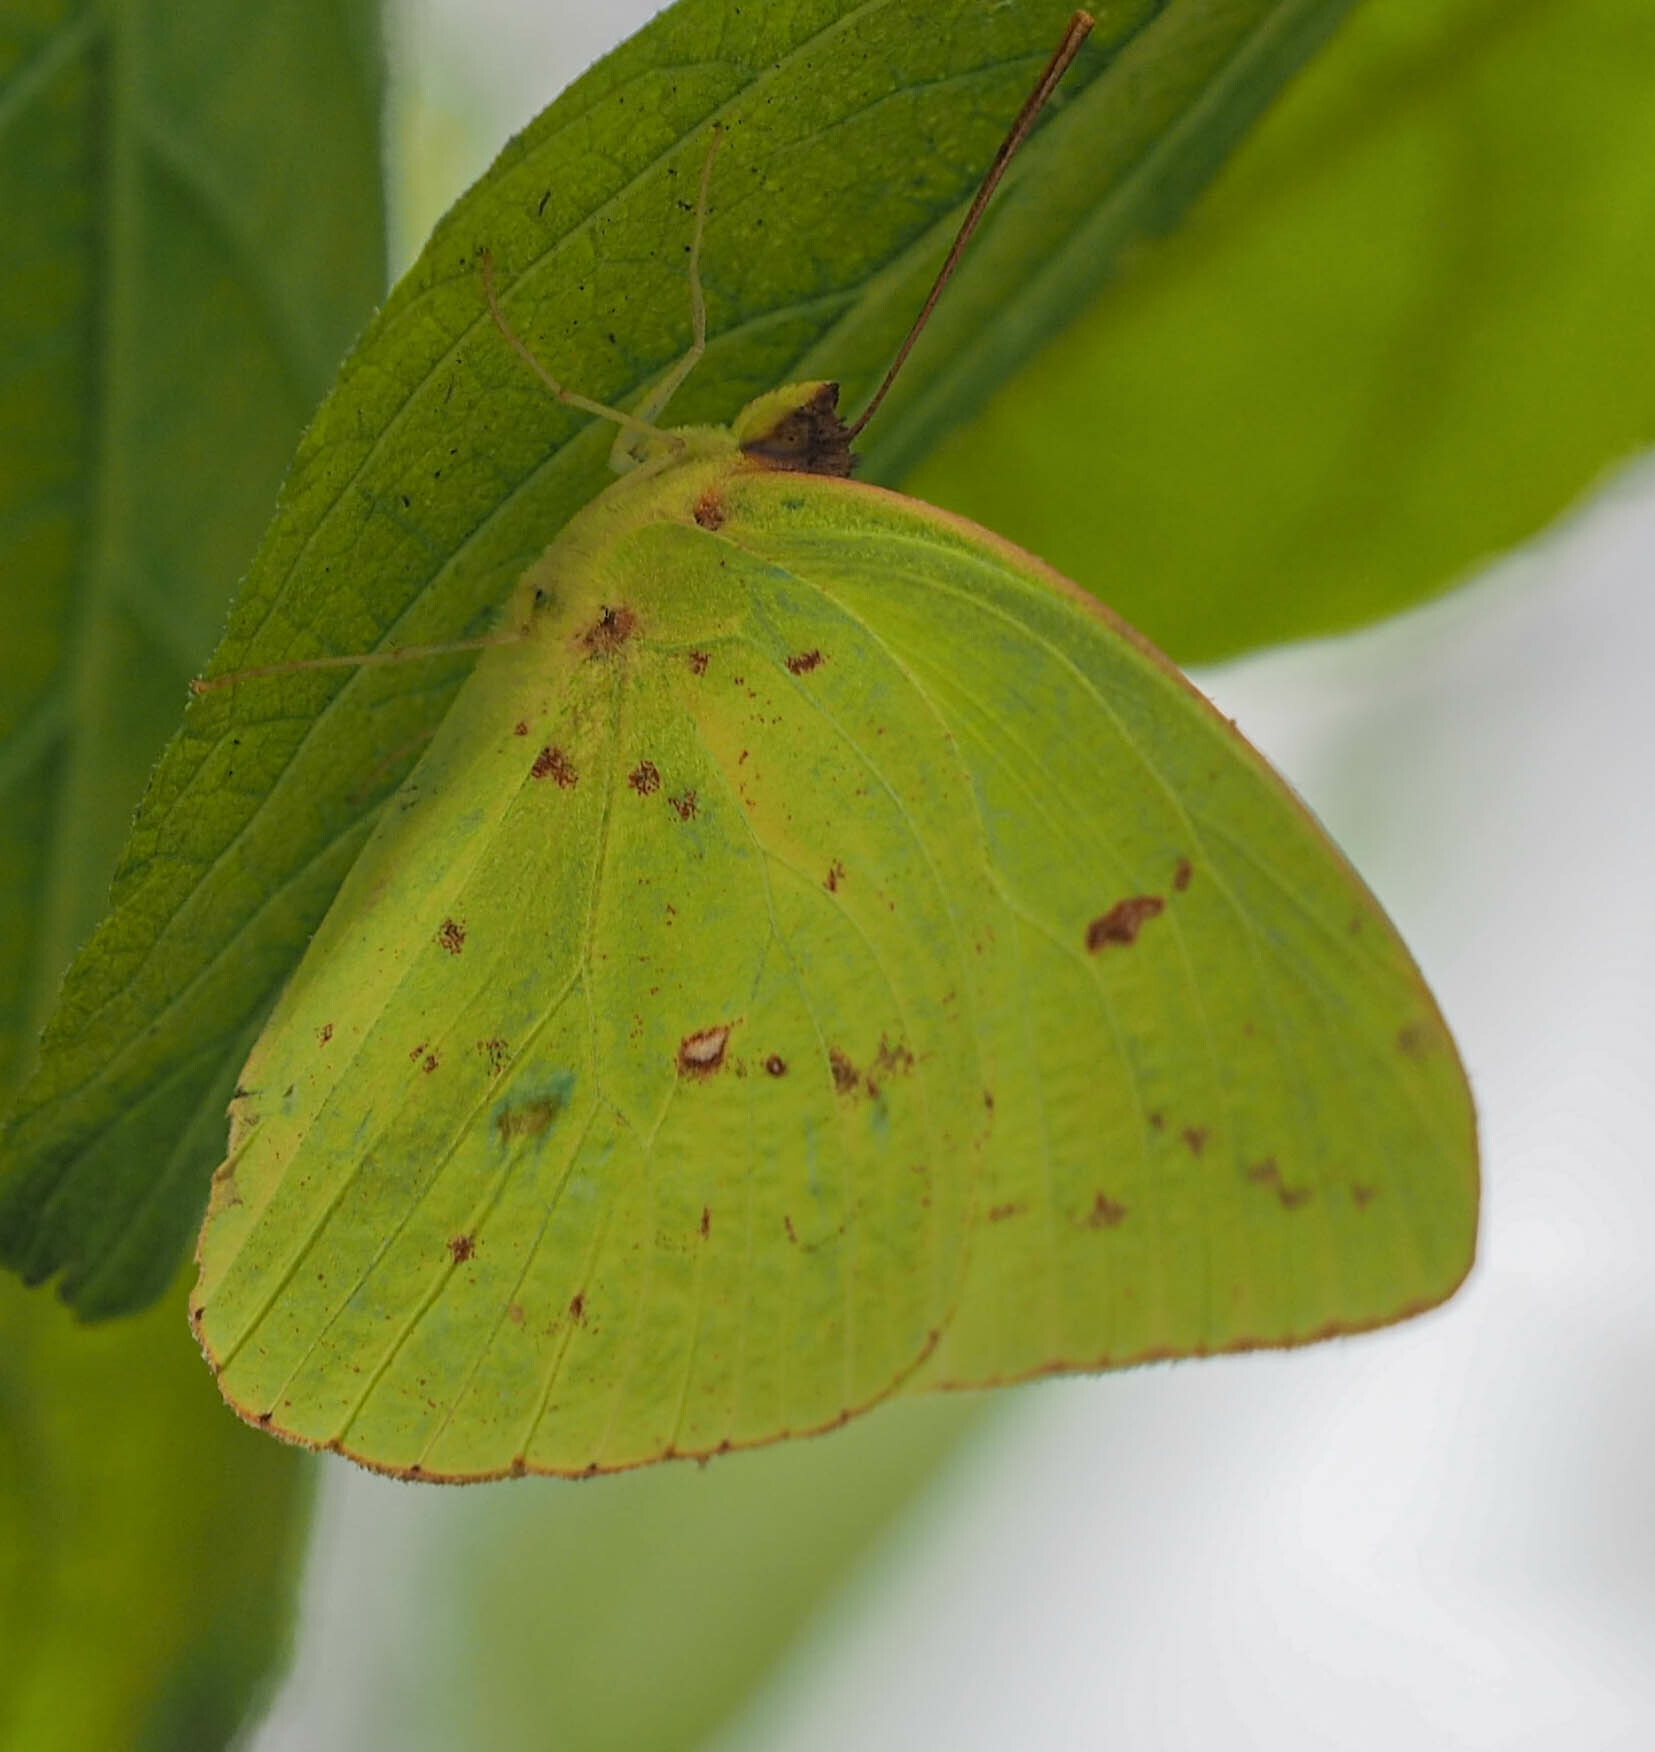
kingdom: Animalia
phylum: Arthropoda
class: Insecta
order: Lepidoptera
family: Pieridae
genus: Phoebis
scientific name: Phoebis sennae
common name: Cloudless sulphur
